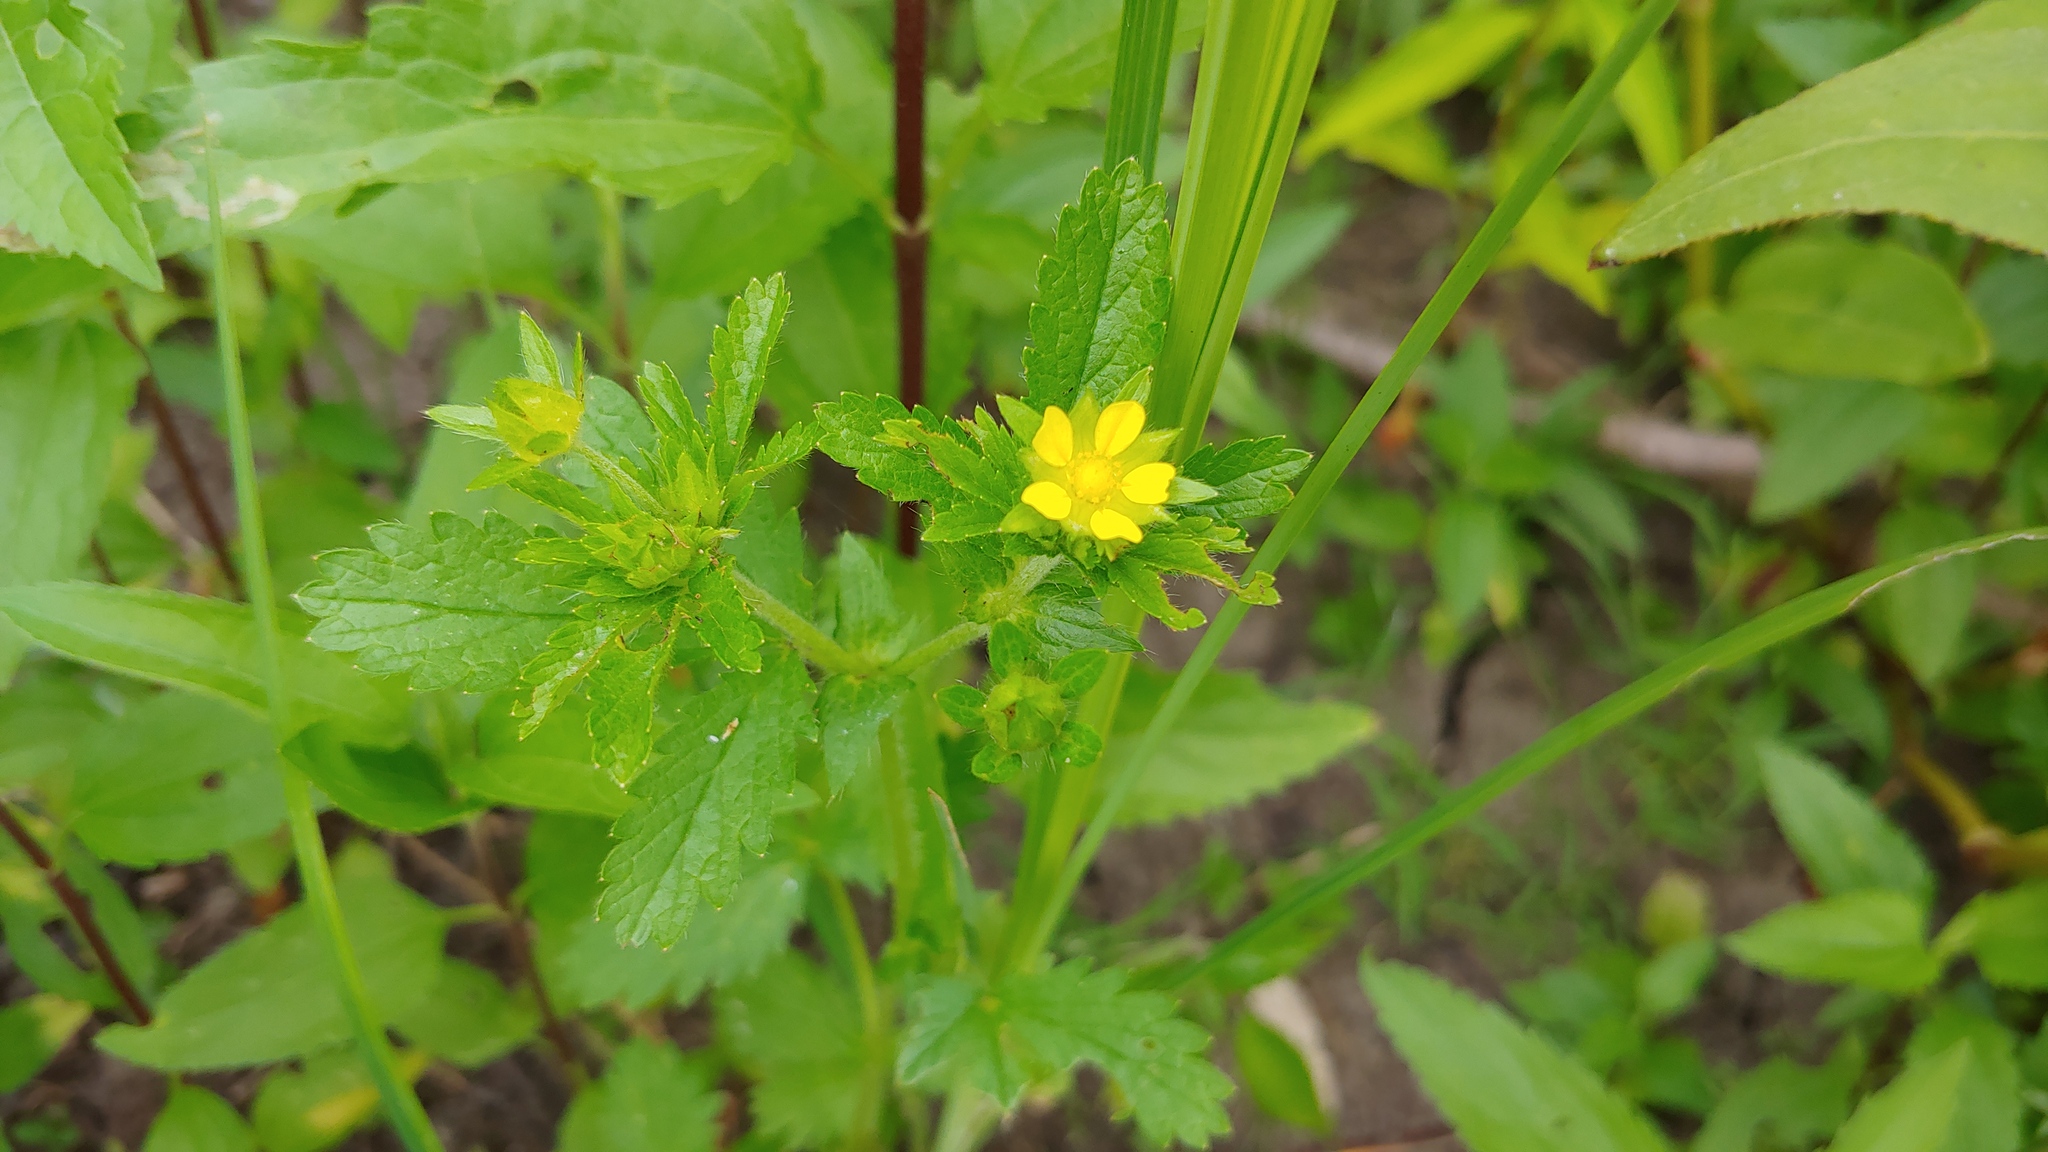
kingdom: Plantae
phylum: Tracheophyta
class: Magnoliopsida
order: Rosales
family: Rosaceae
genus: Potentilla
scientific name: Potentilla norvegica
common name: Ternate-leaved cinquefoil
